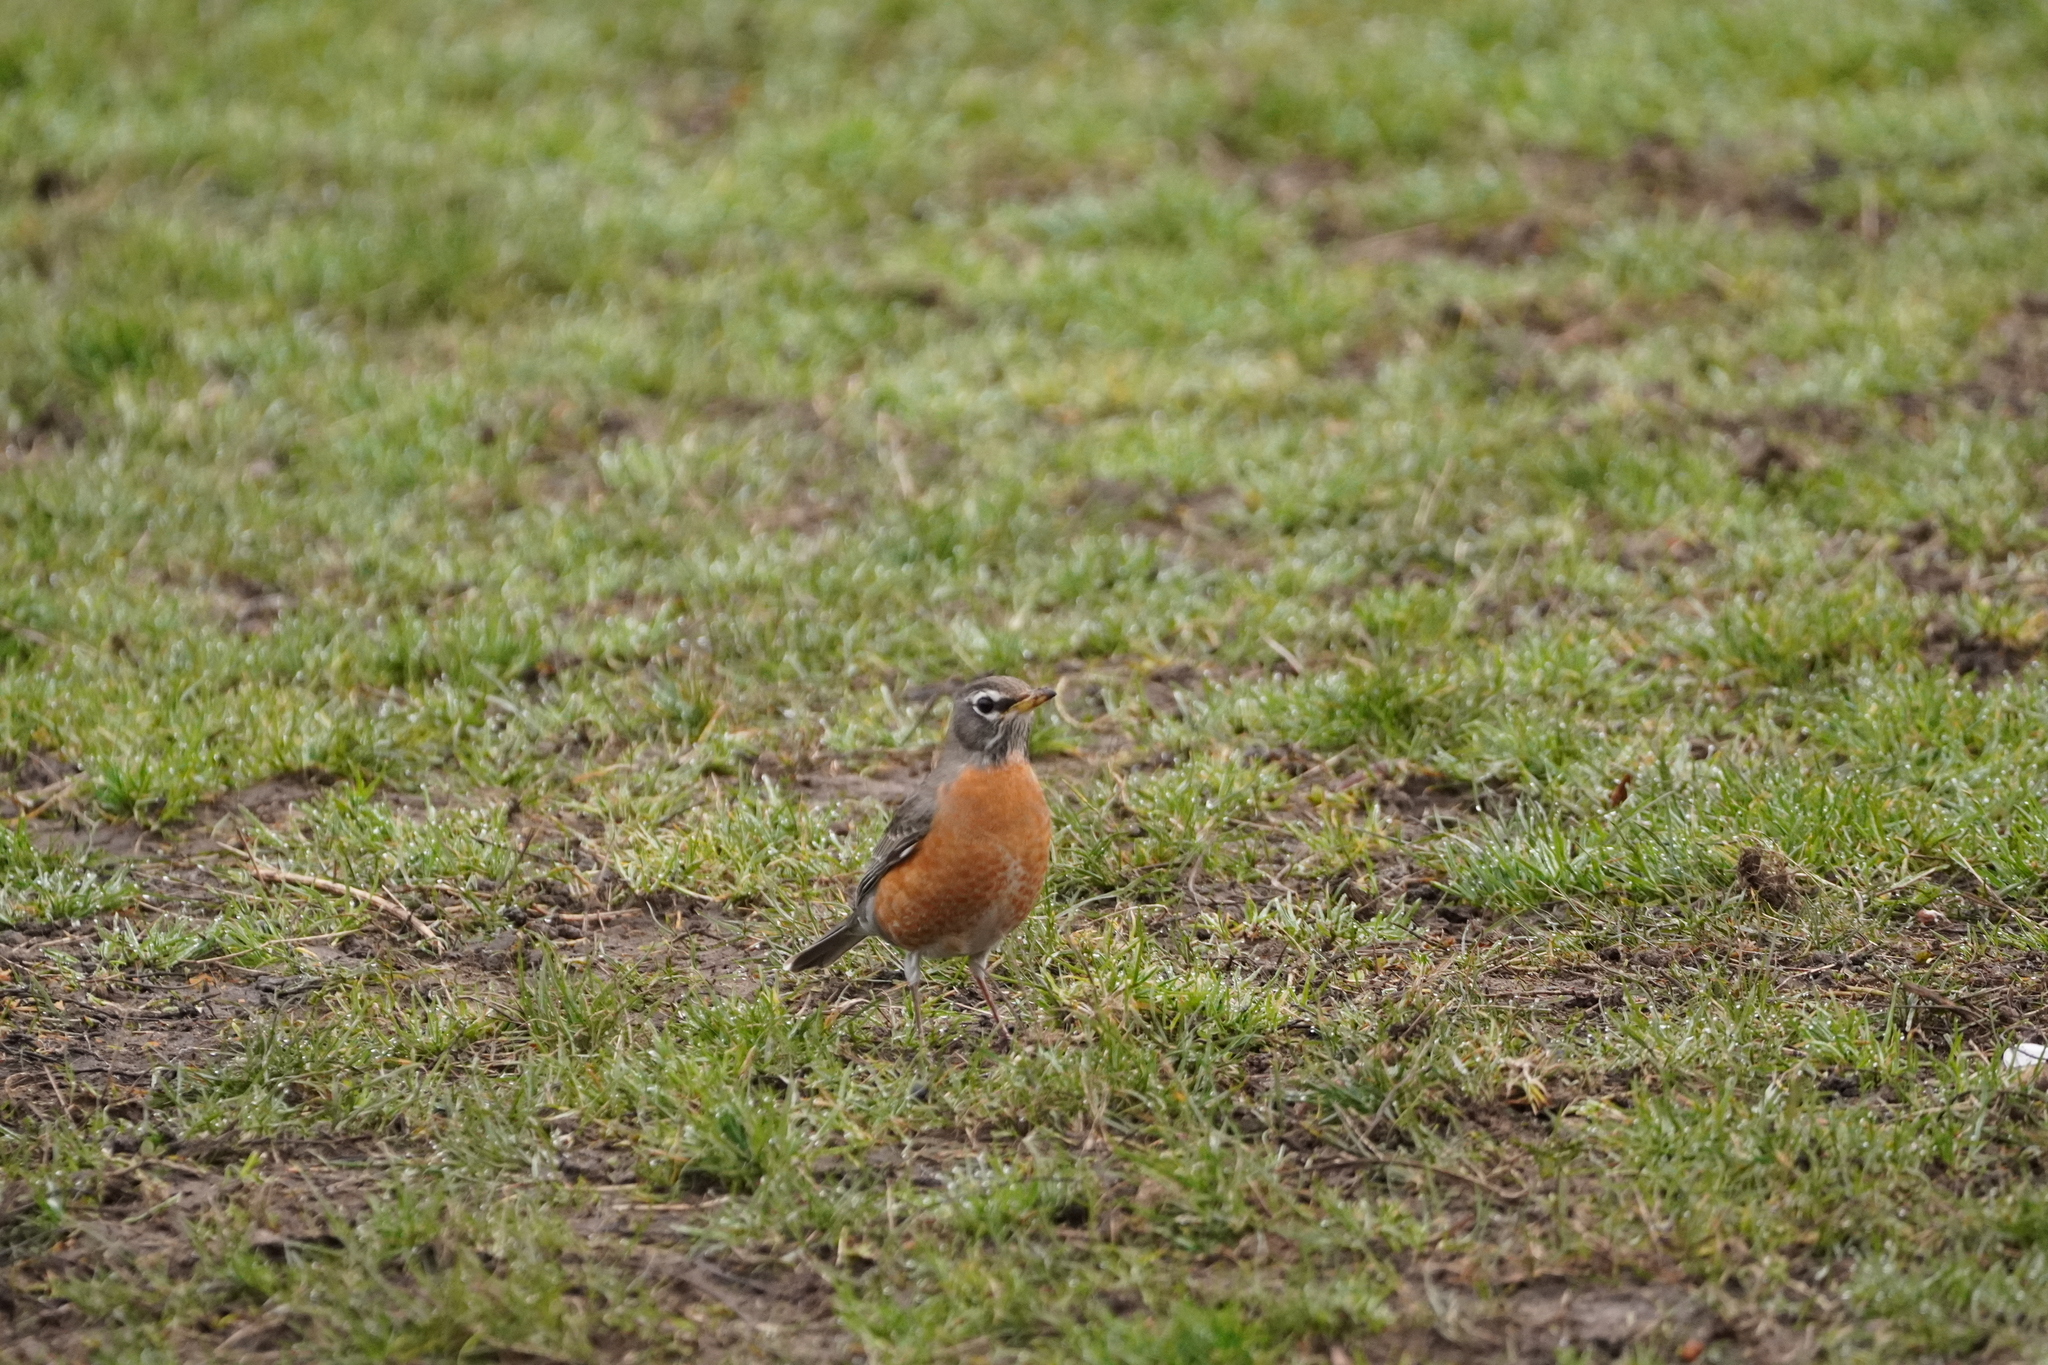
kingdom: Animalia
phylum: Chordata
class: Aves
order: Passeriformes
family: Turdidae
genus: Turdus
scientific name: Turdus migratorius
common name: American robin
